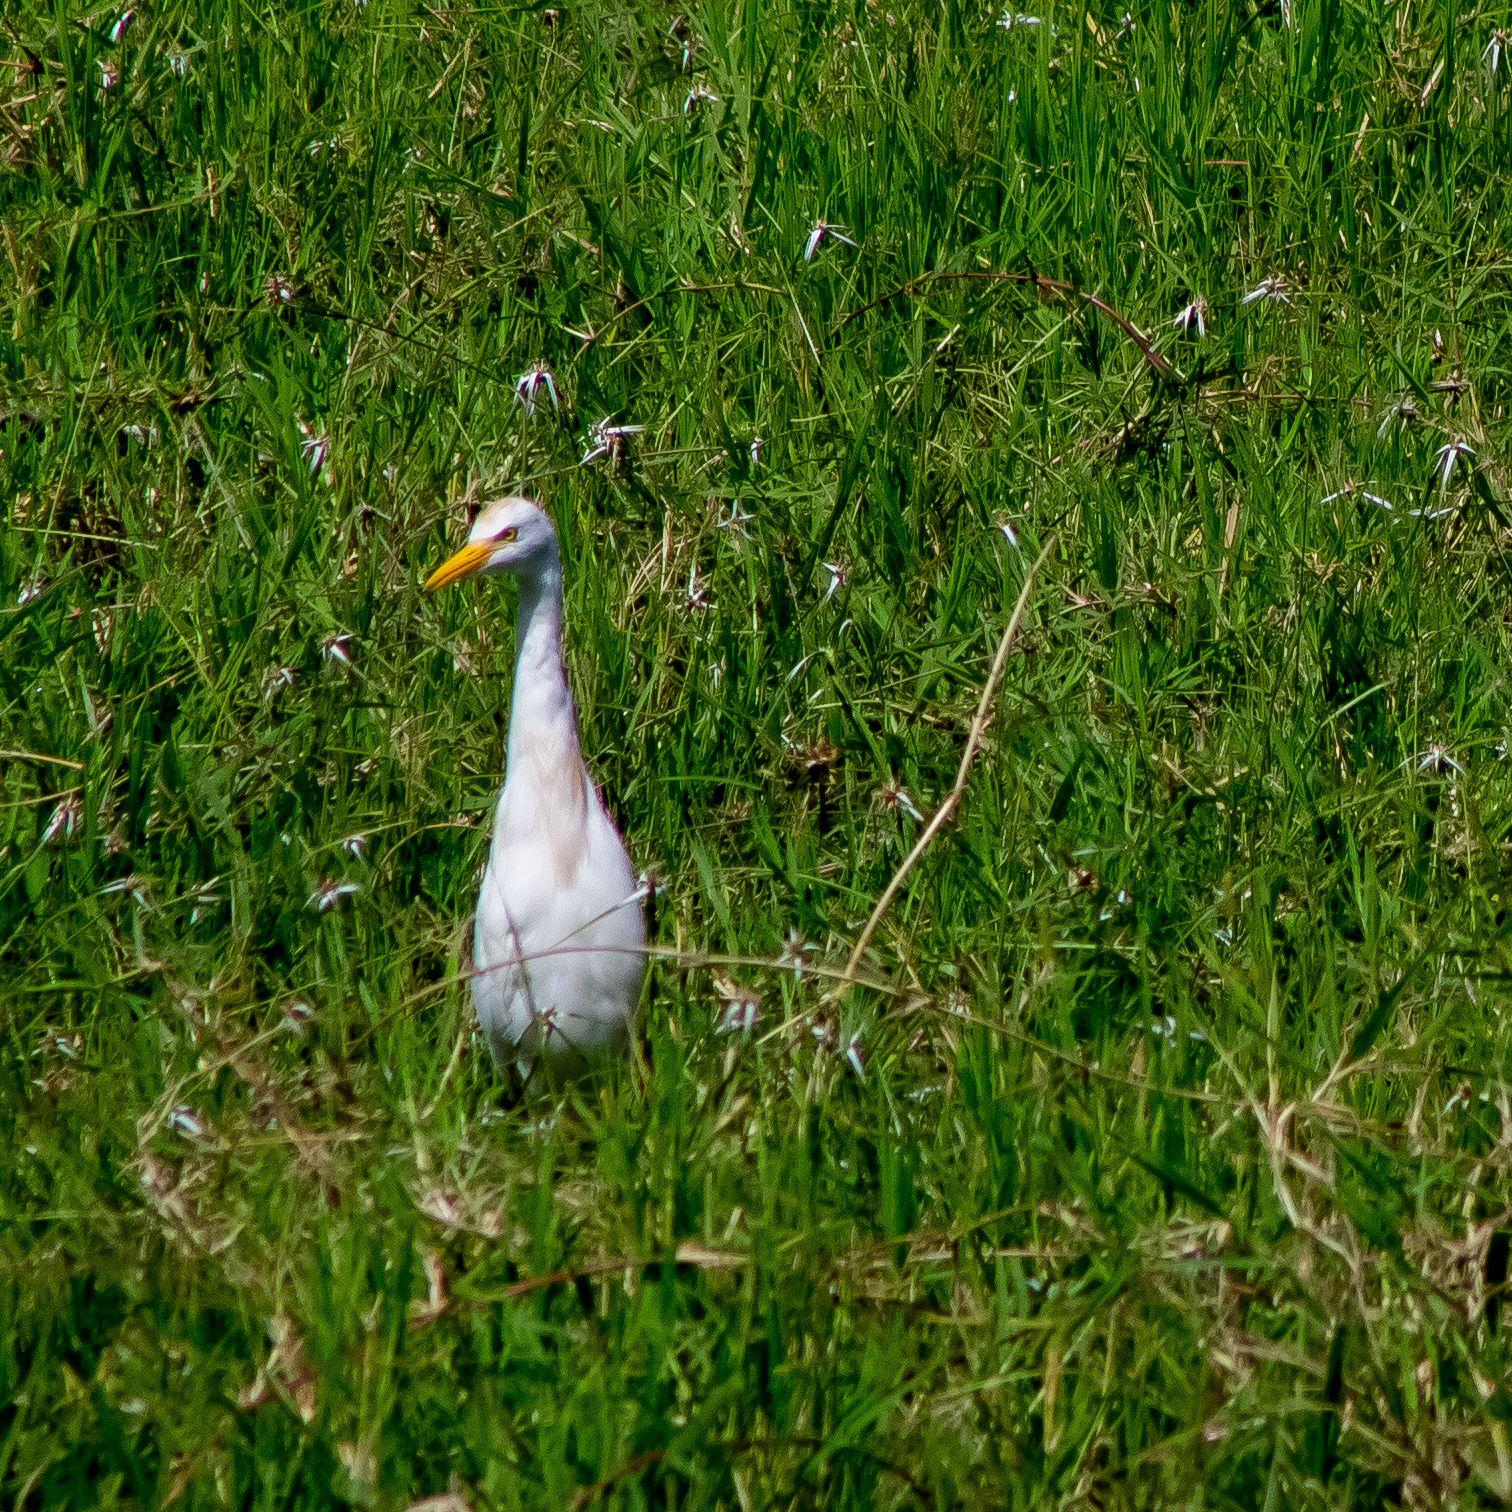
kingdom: Animalia
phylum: Chordata
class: Aves
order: Pelecaniformes
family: Ardeidae
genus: Bubulcus
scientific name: Bubulcus ibis
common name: Cattle egret
